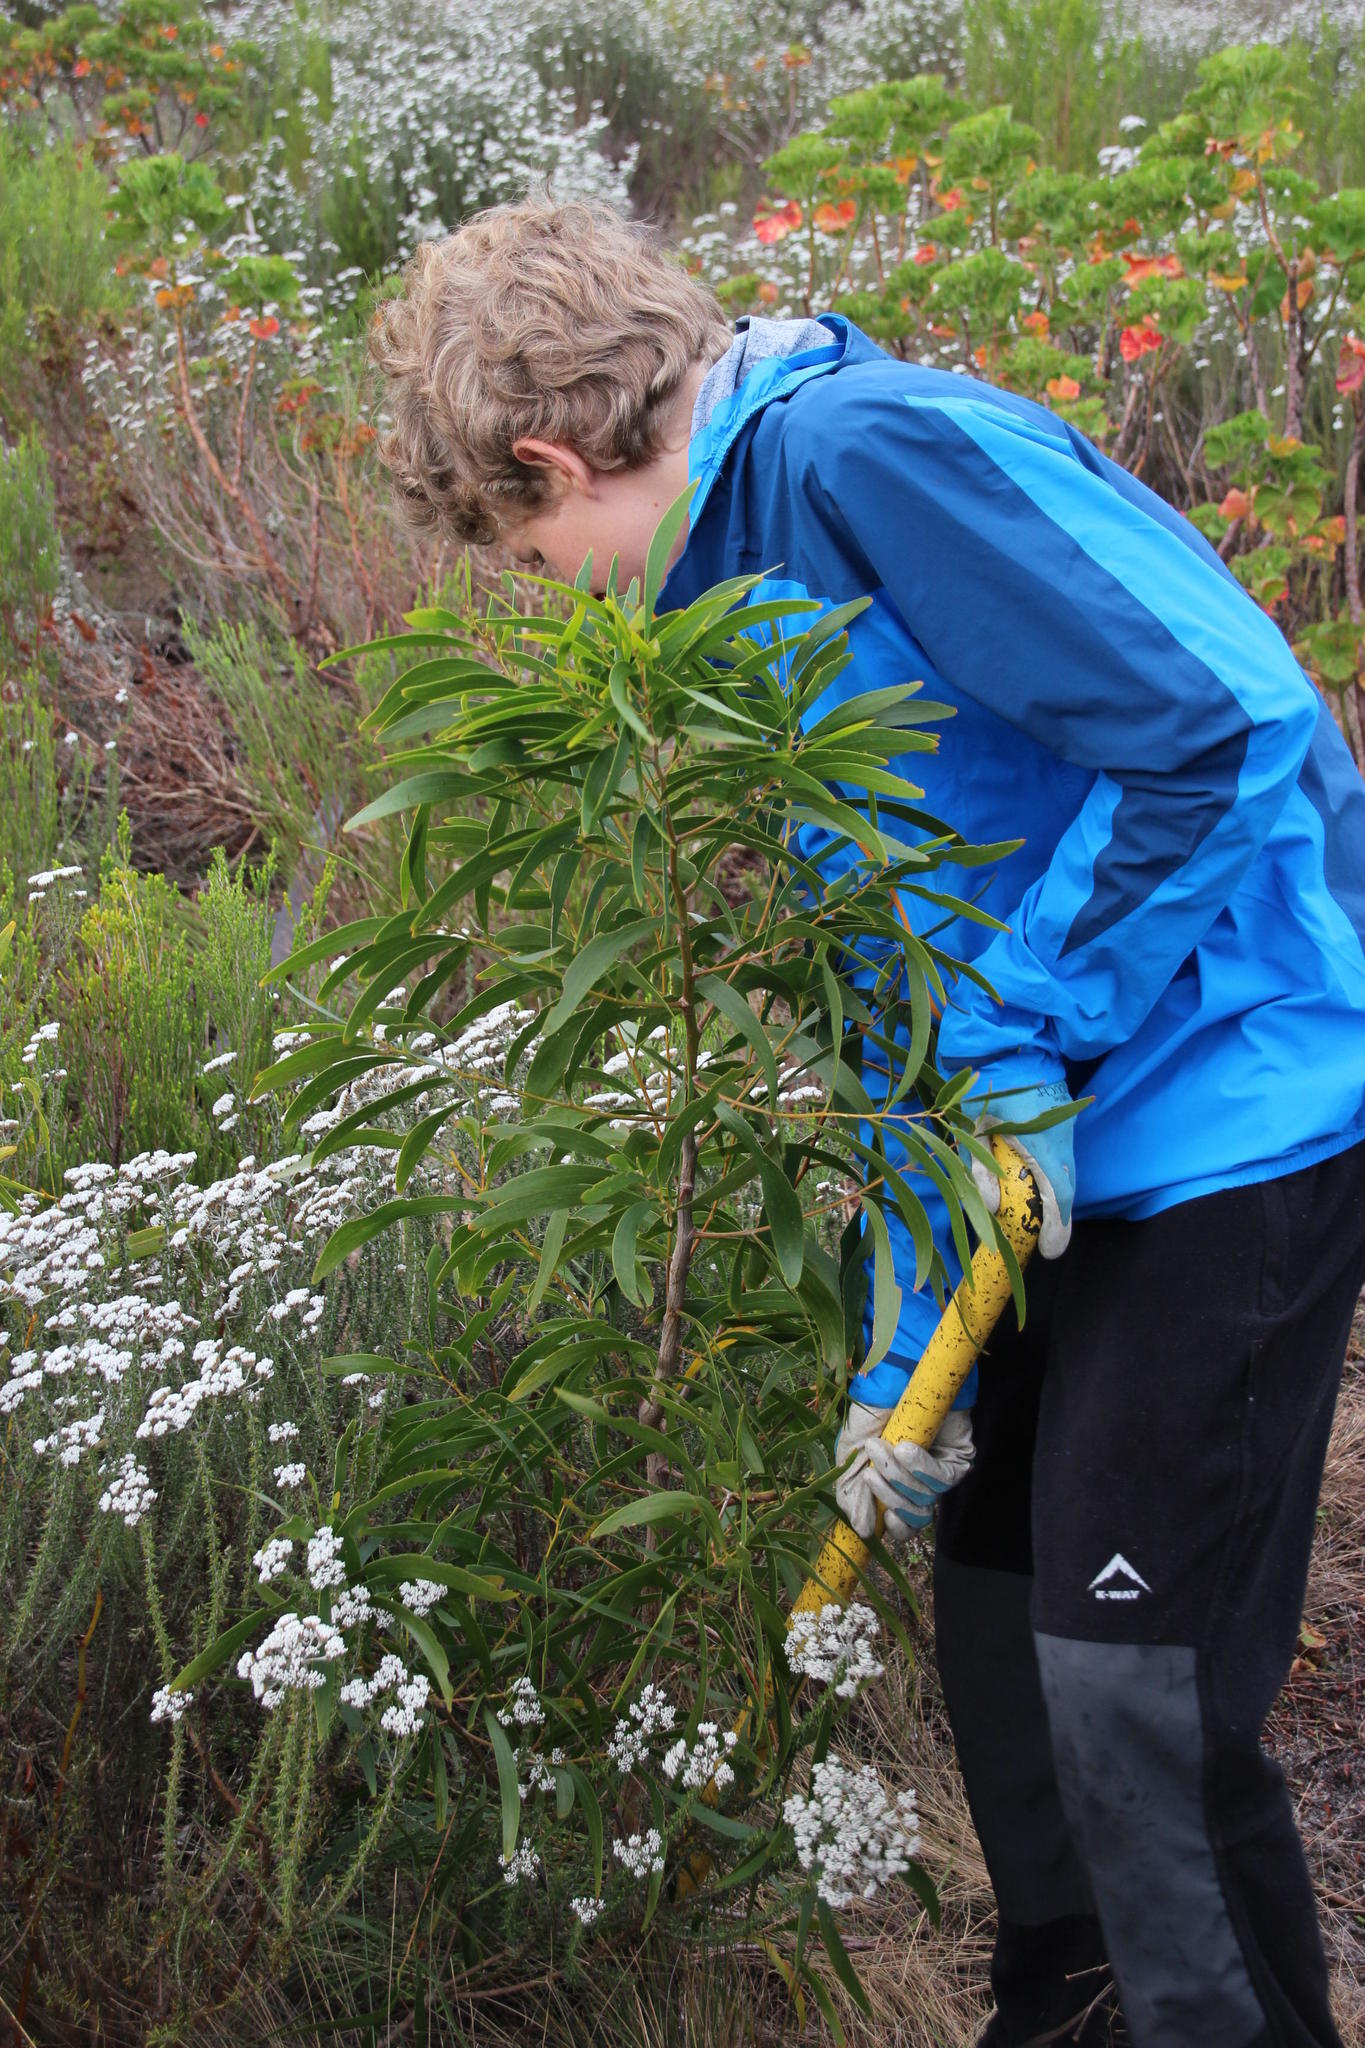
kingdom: Plantae
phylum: Tracheophyta
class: Magnoliopsida
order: Fabales
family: Fabaceae
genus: Acacia
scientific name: Acacia implexa
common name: Black wattle
